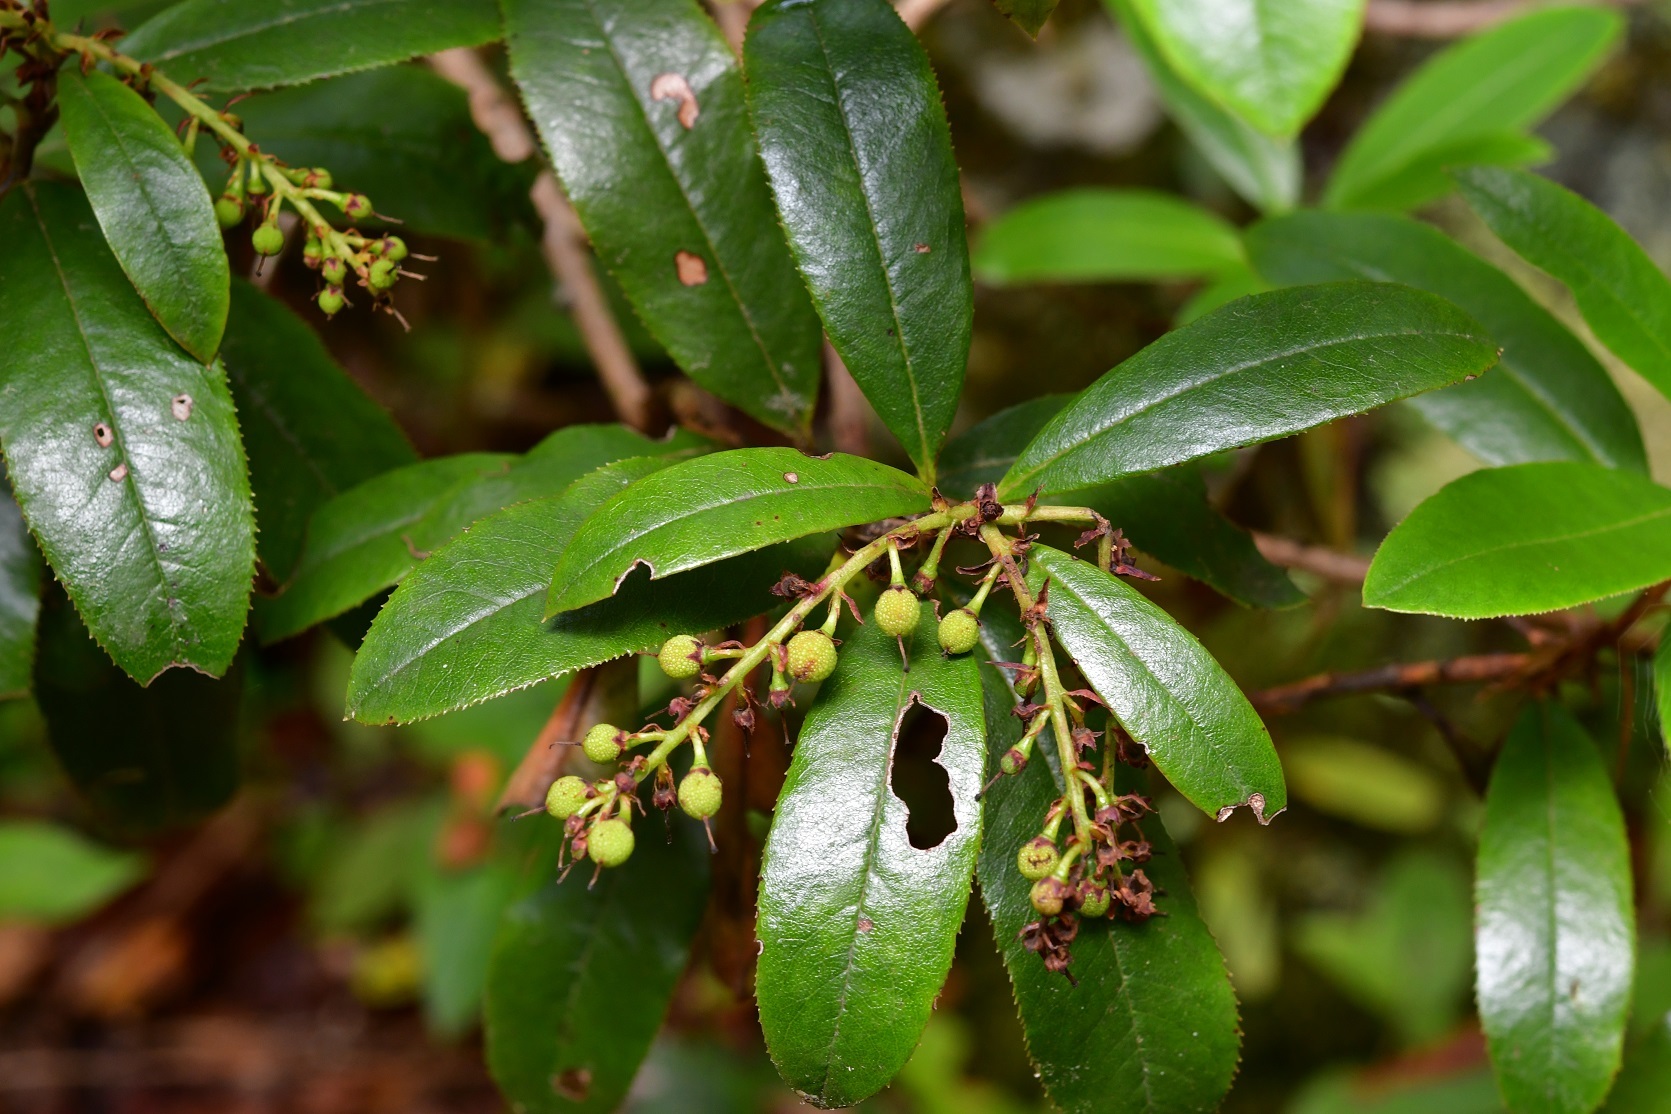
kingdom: Plantae
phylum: Tracheophyta
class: Magnoliopsida
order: Ericales
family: Ericaceae
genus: Comarostaphylis
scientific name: Comarostaphylis discolor
